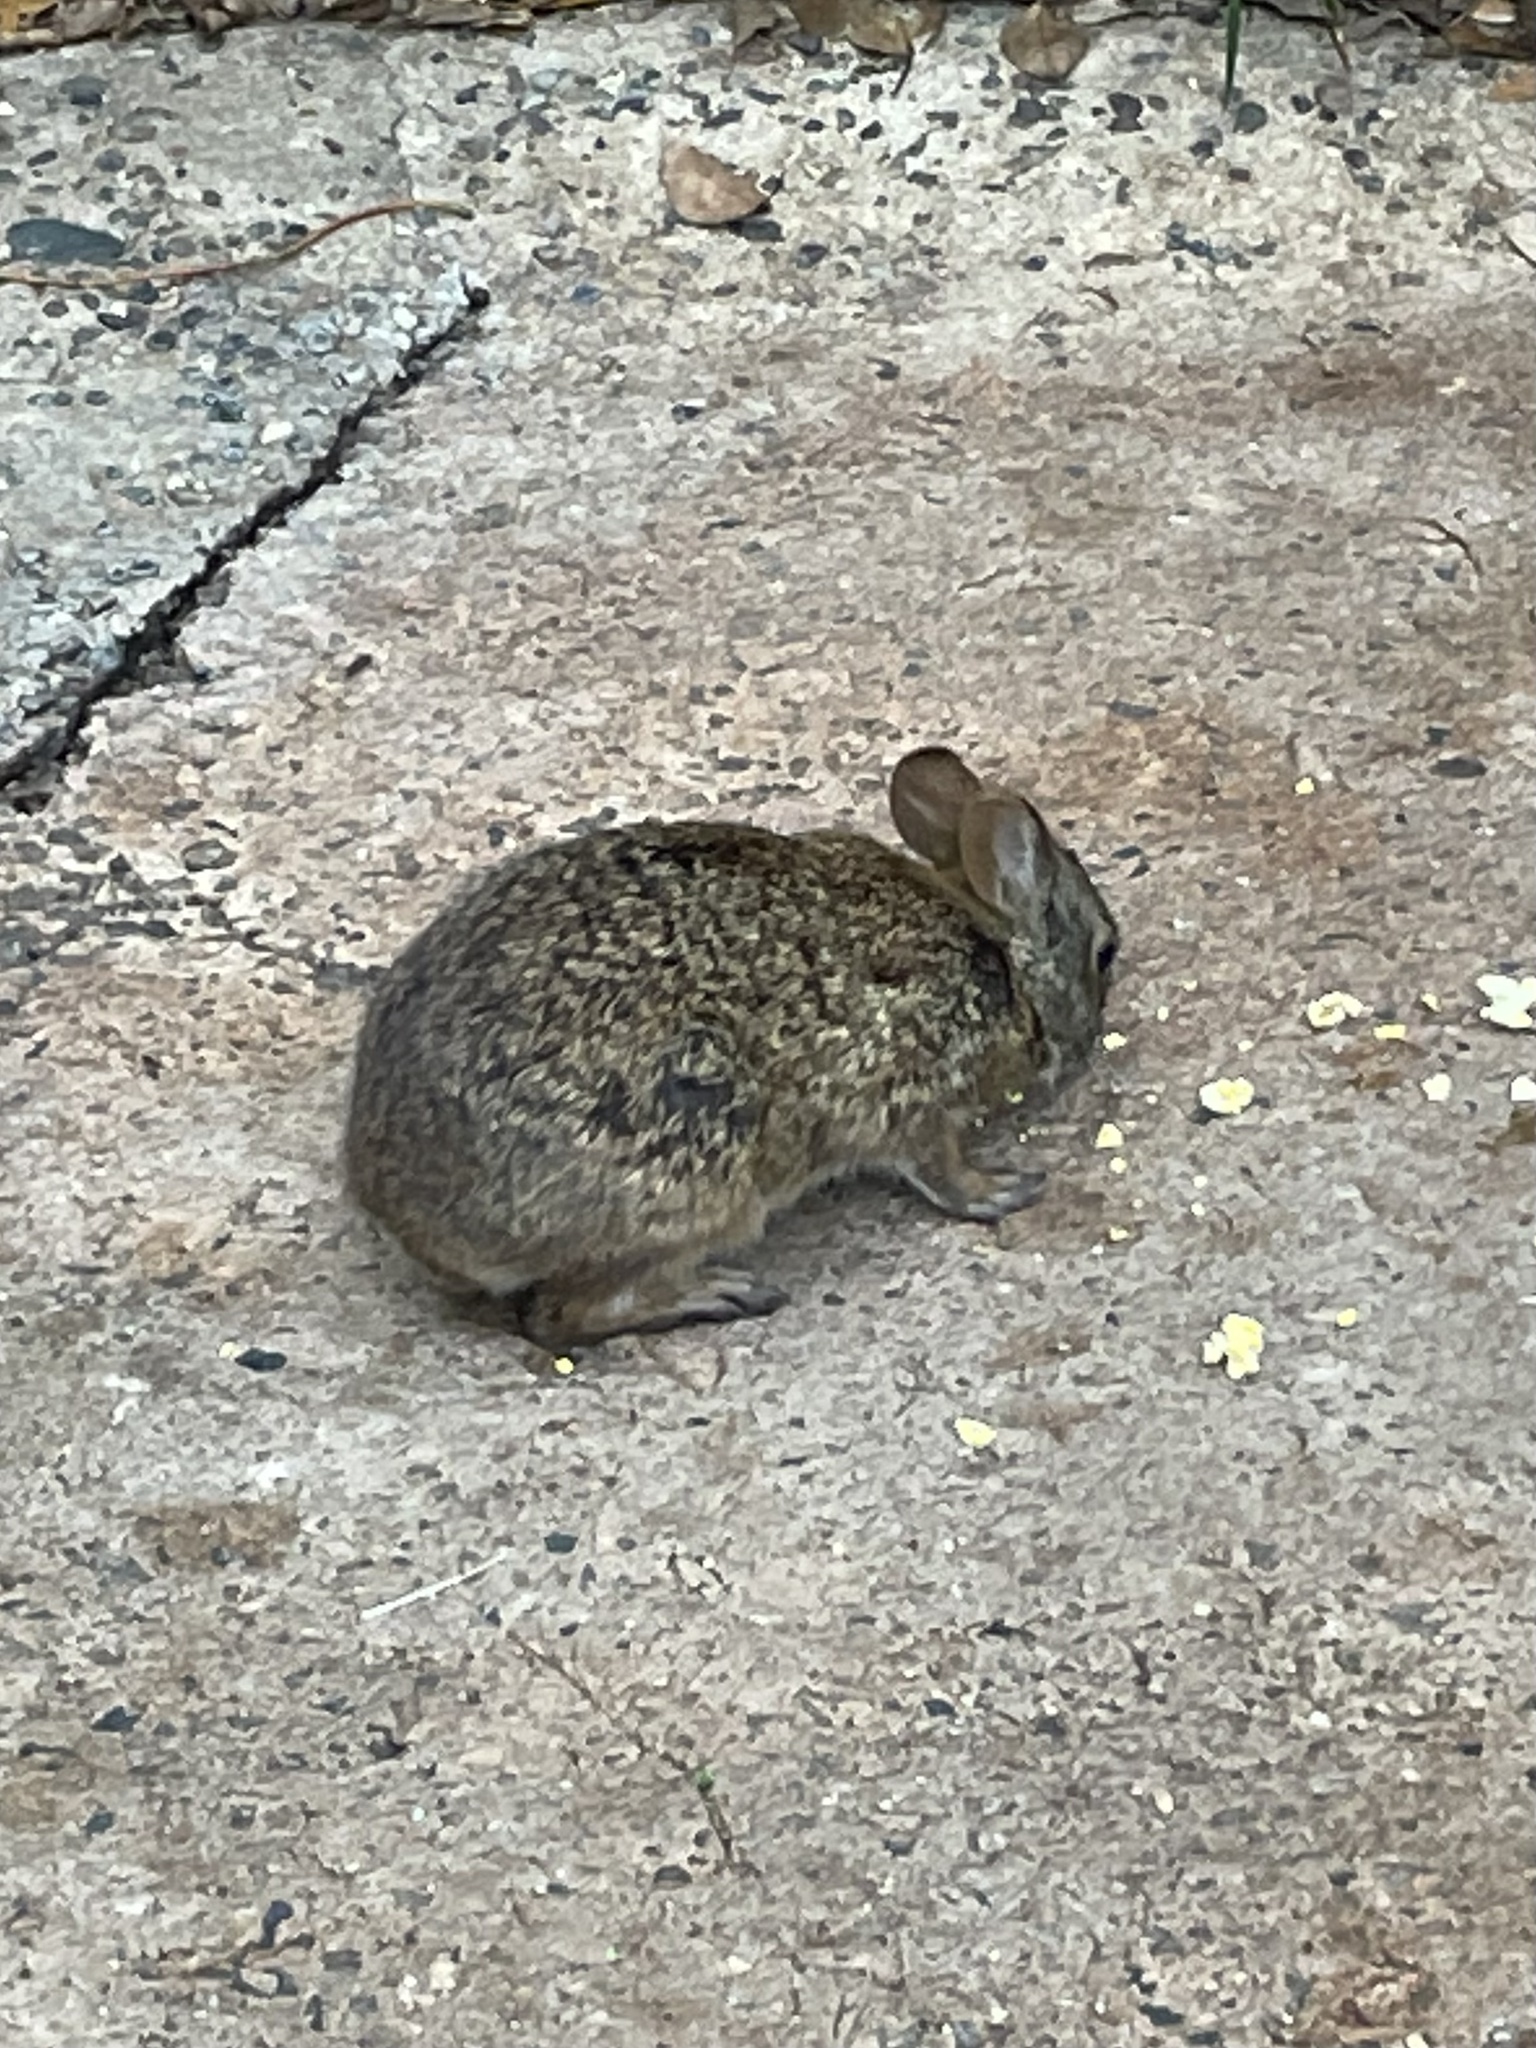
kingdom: Animalia
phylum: Chordata
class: Mammalia
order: Lagomorpha
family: Leporidae
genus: Sylvilagus
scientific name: Sylvilagus palustris
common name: Marsh rabbit
